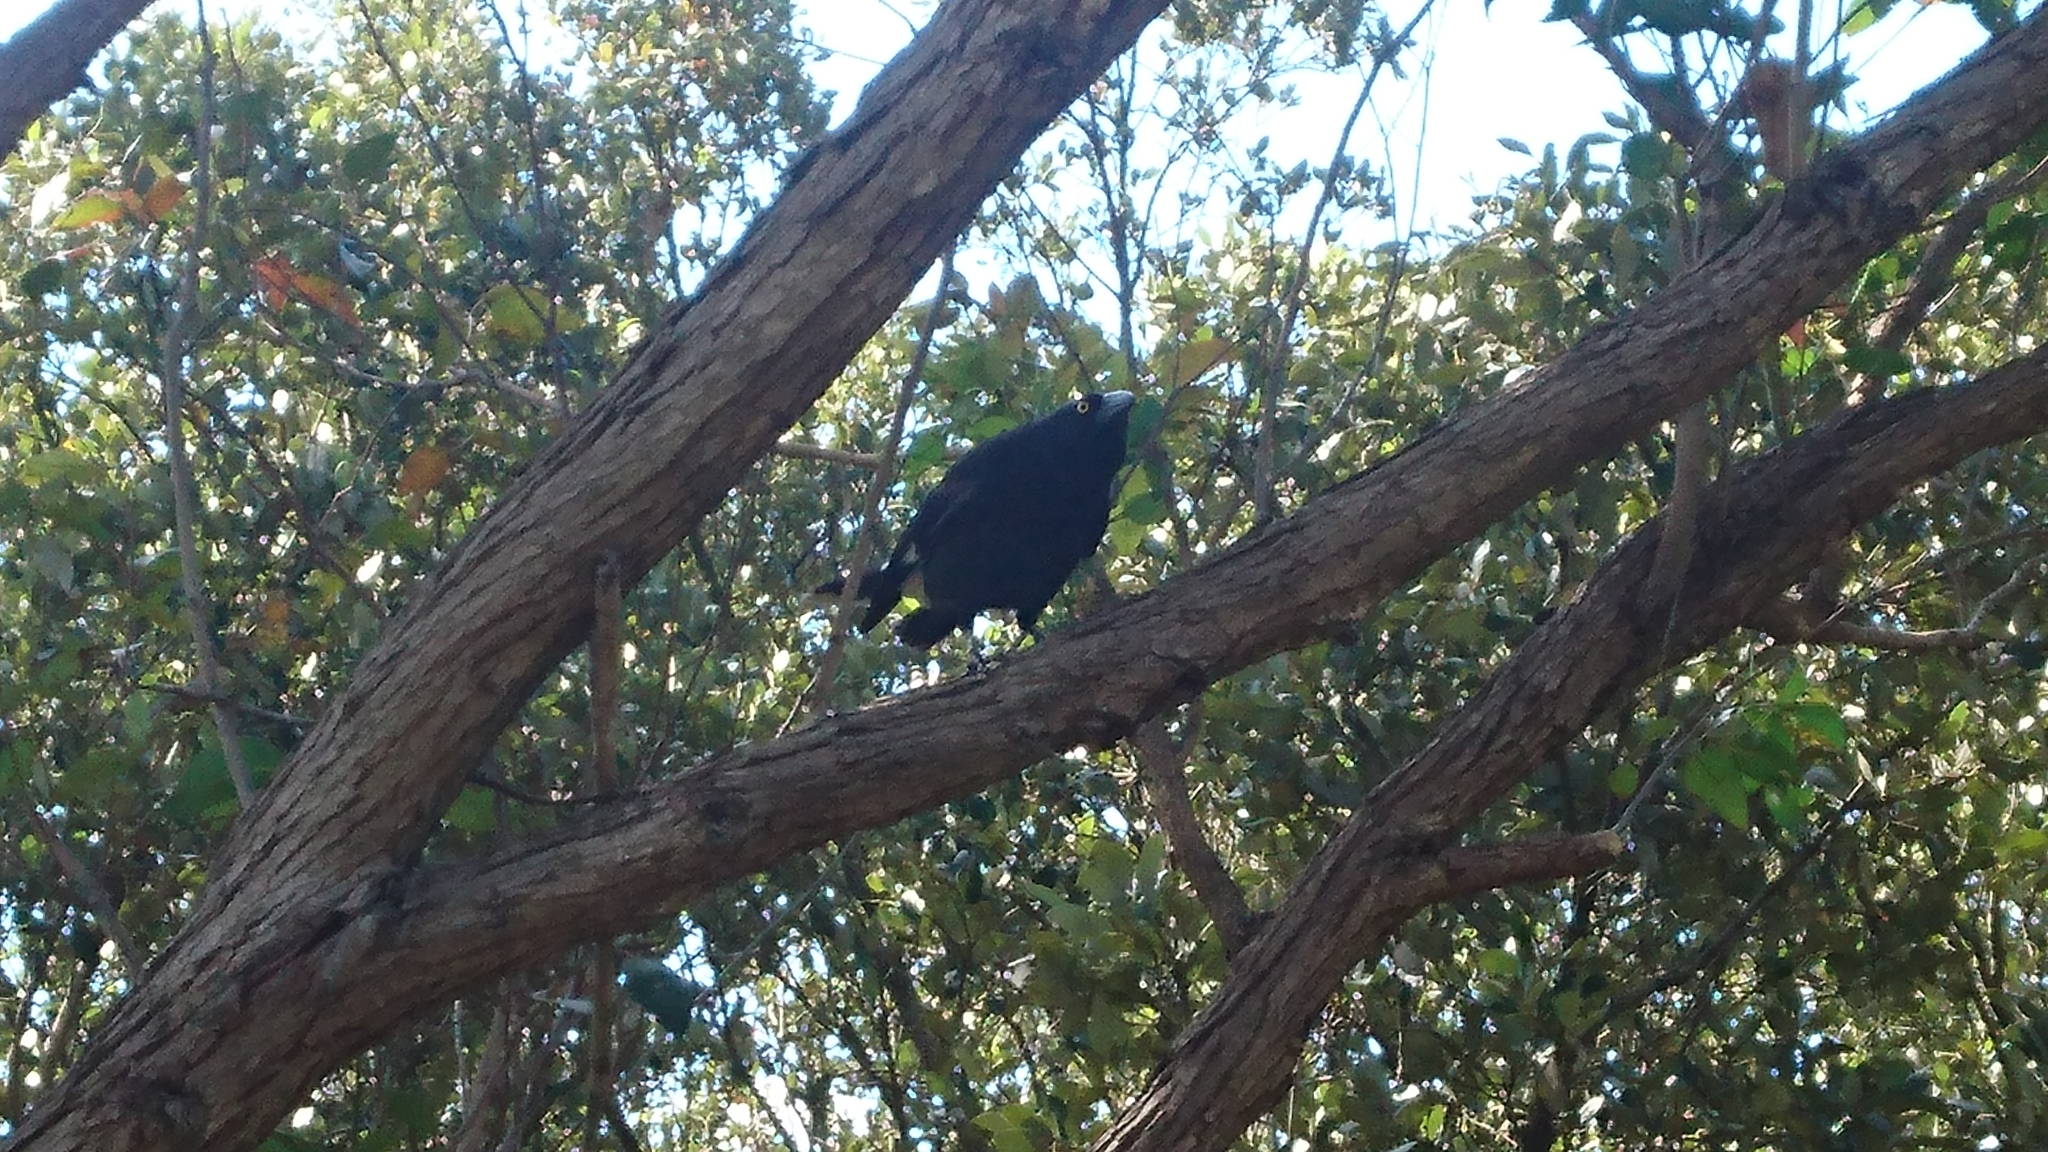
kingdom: Animalia
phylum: Chordata
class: Aves
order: Passeriformes
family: Cracticidae
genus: Strepera
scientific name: Strepera graculina
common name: Pied currawong
